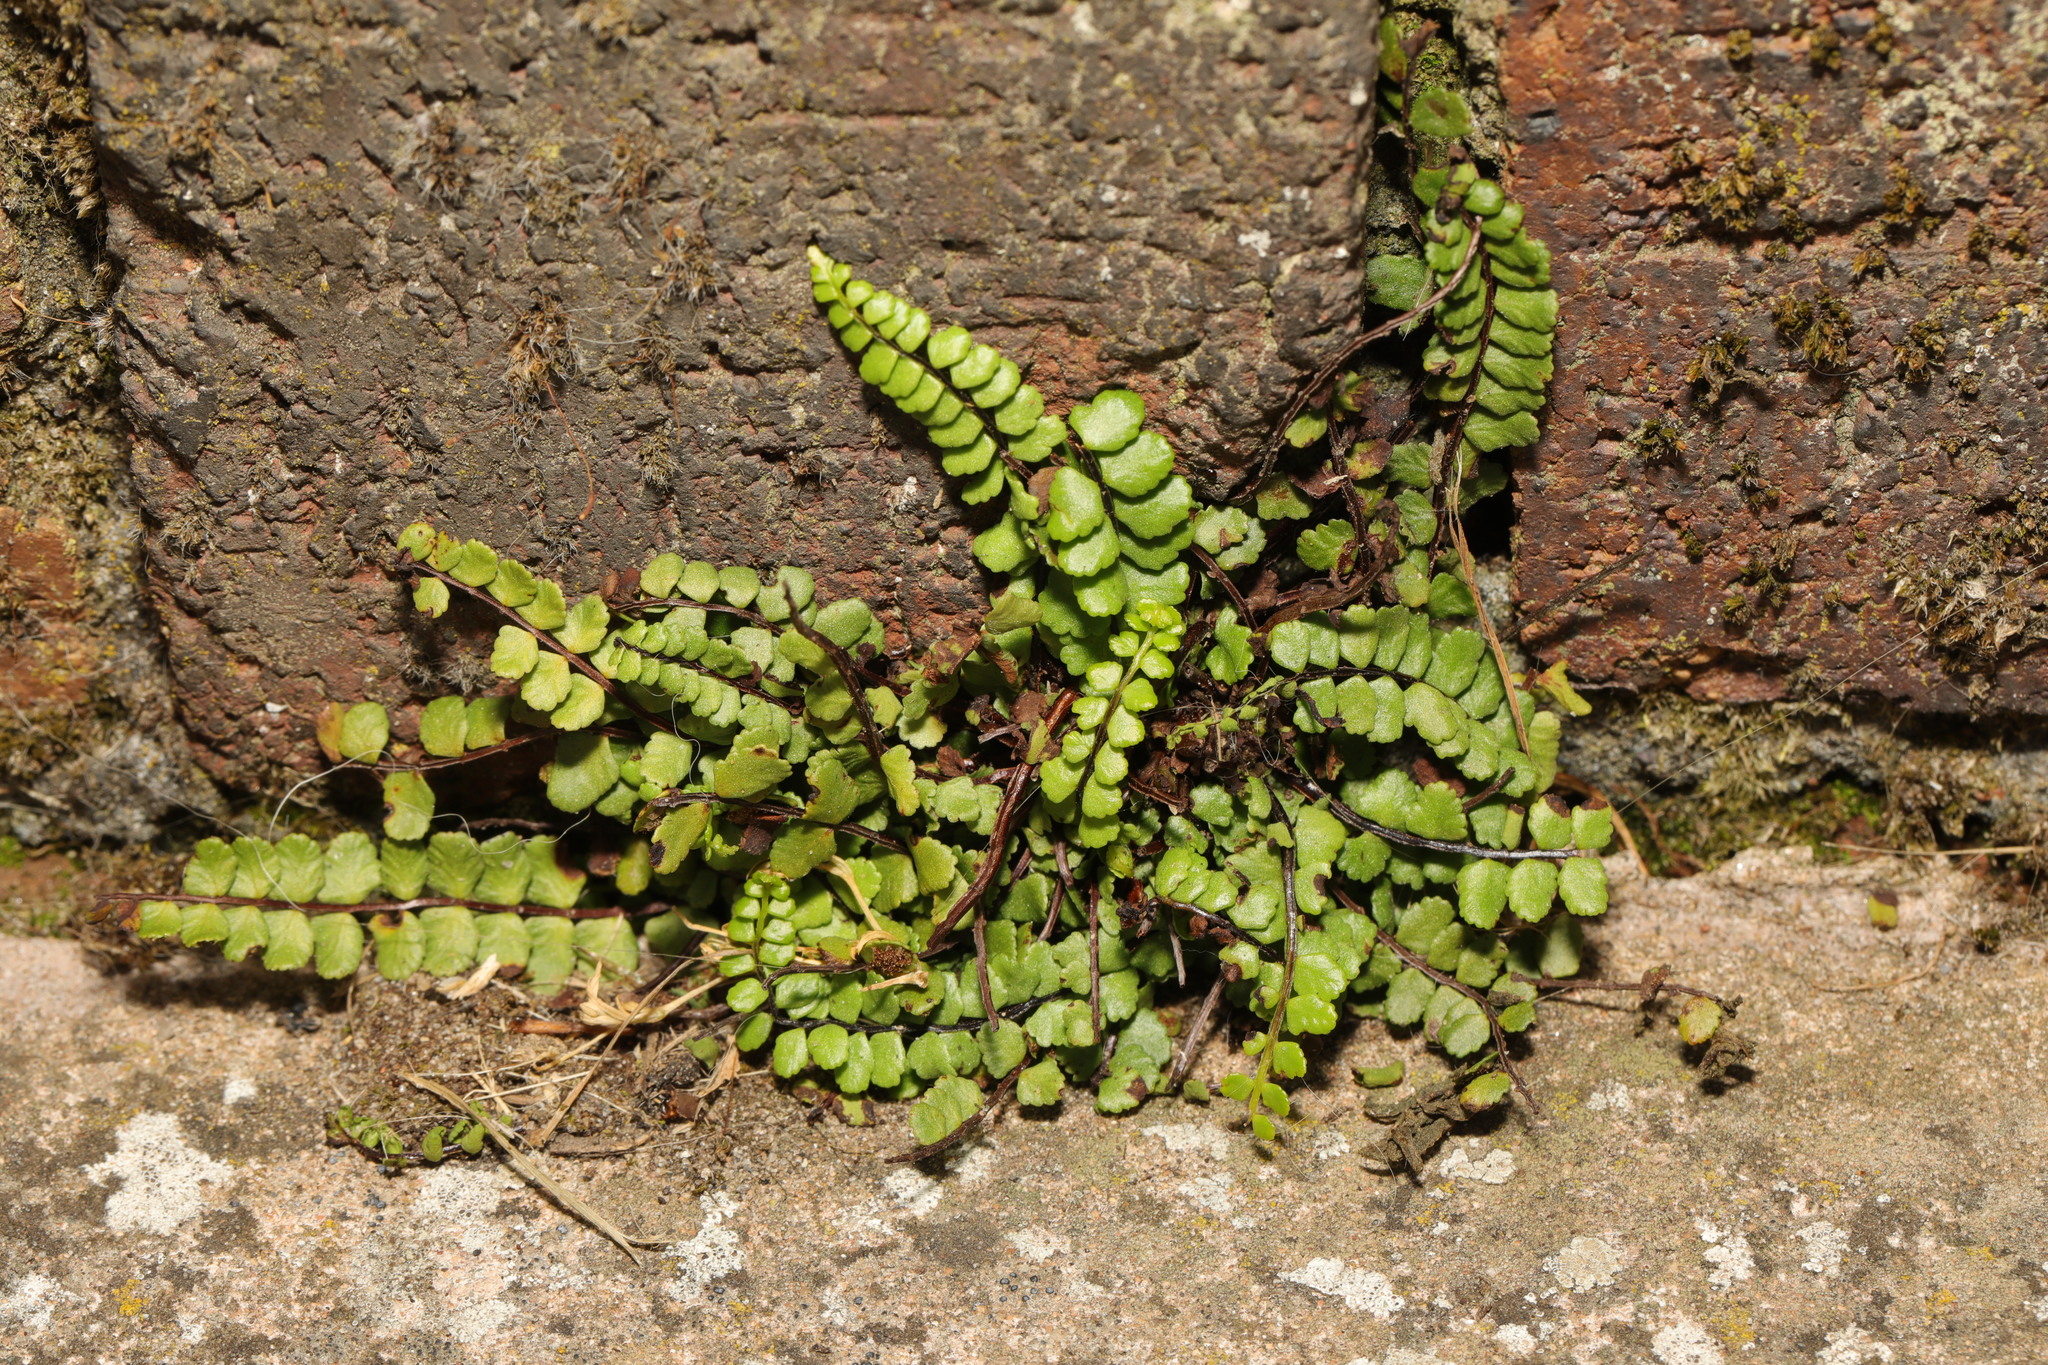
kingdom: Plantae
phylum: Tracheophyta
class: Polypodiopsida
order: Polypodiales
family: Aspleniaceae
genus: Asplenium
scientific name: Asplenium trichomanes
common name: Maidenhair spleenwort
